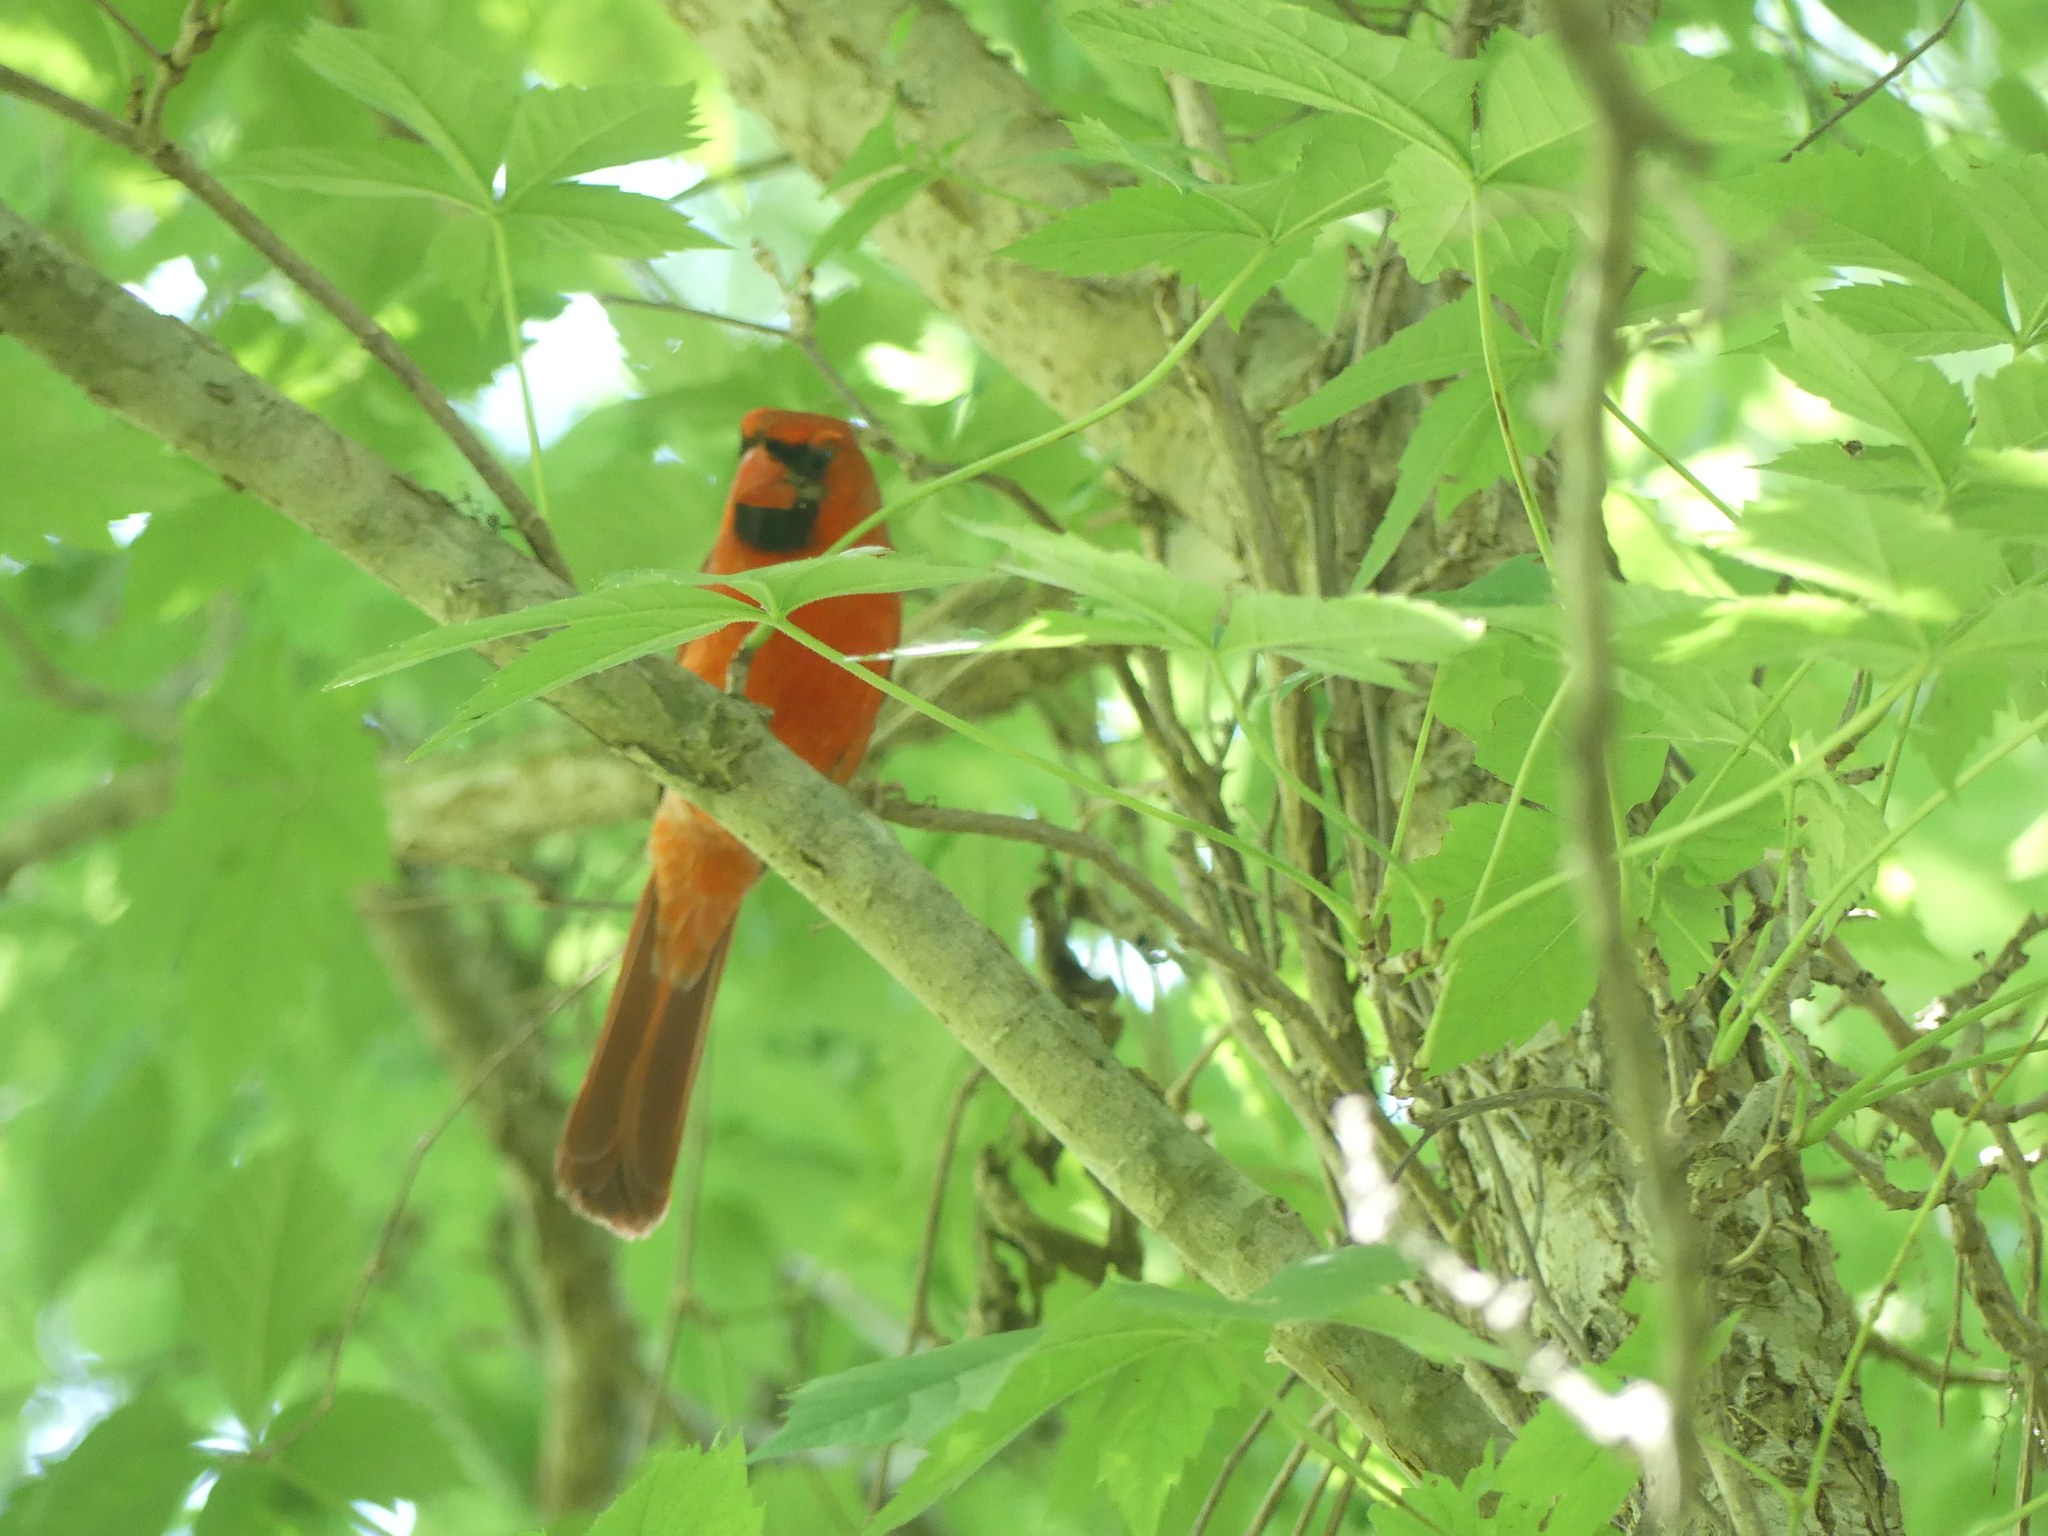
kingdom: Animalia
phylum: Chordata
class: Aves
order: Passeriformes
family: Cardinalidae
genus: Cardinalis
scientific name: Cardinalis cardinalis
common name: Northern cardinal
